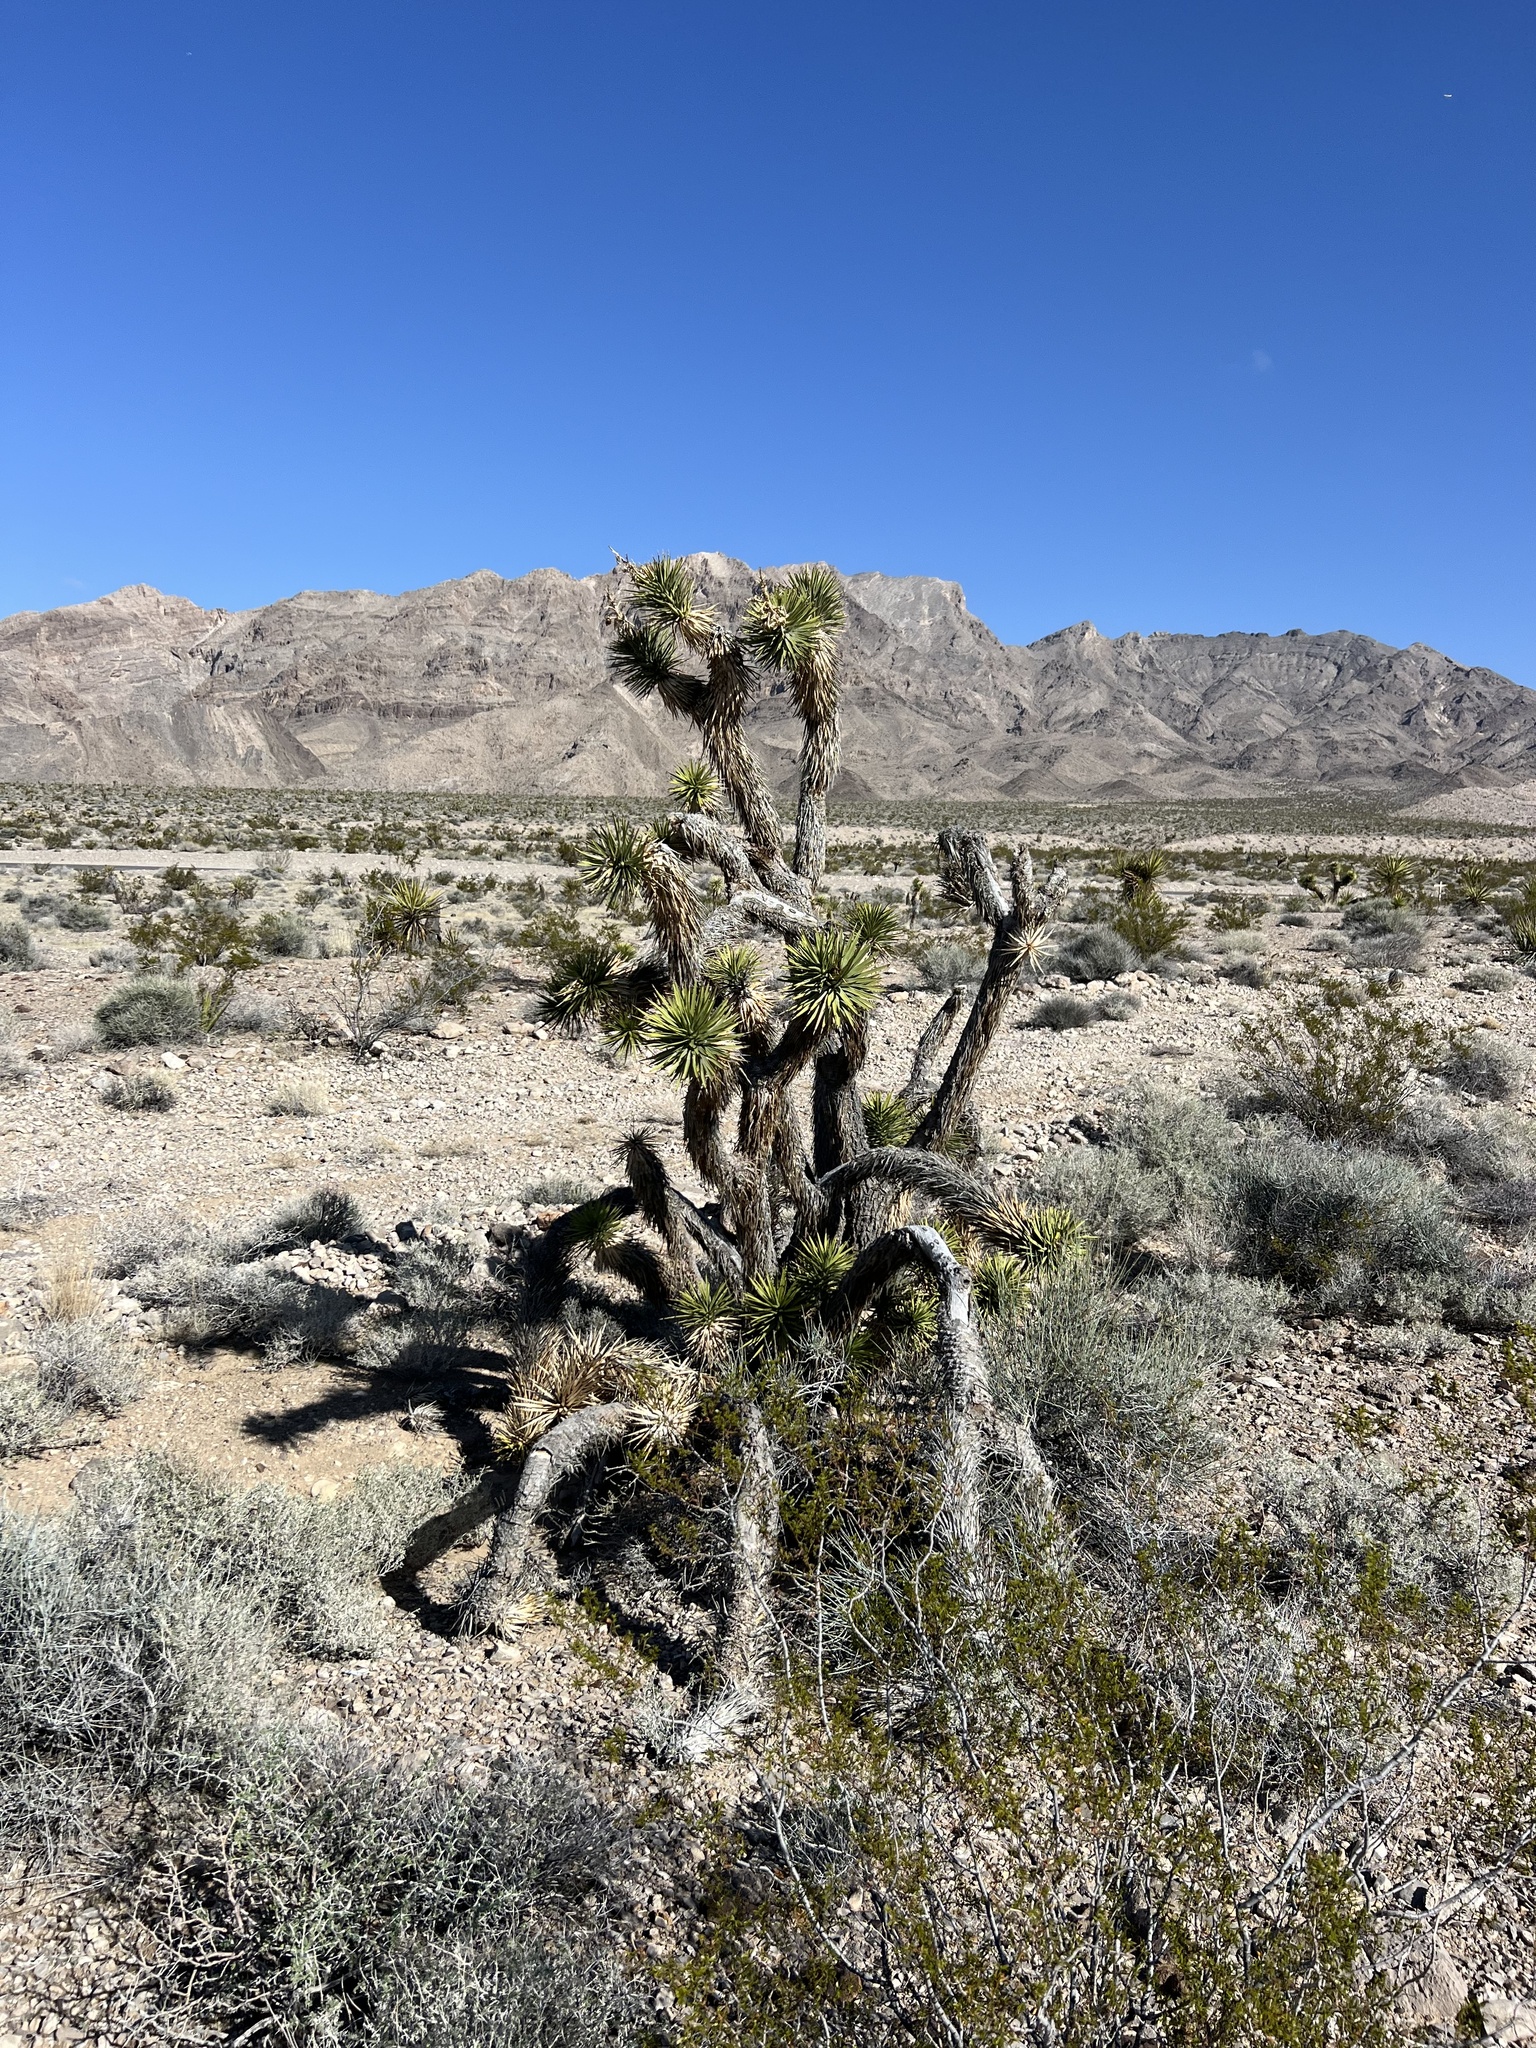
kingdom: Plantae
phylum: Tracheophyta
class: Liliopsida
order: Asparagales
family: Asparagaceae
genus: Yucca
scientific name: Yucca brevifolia
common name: Joshua tree
